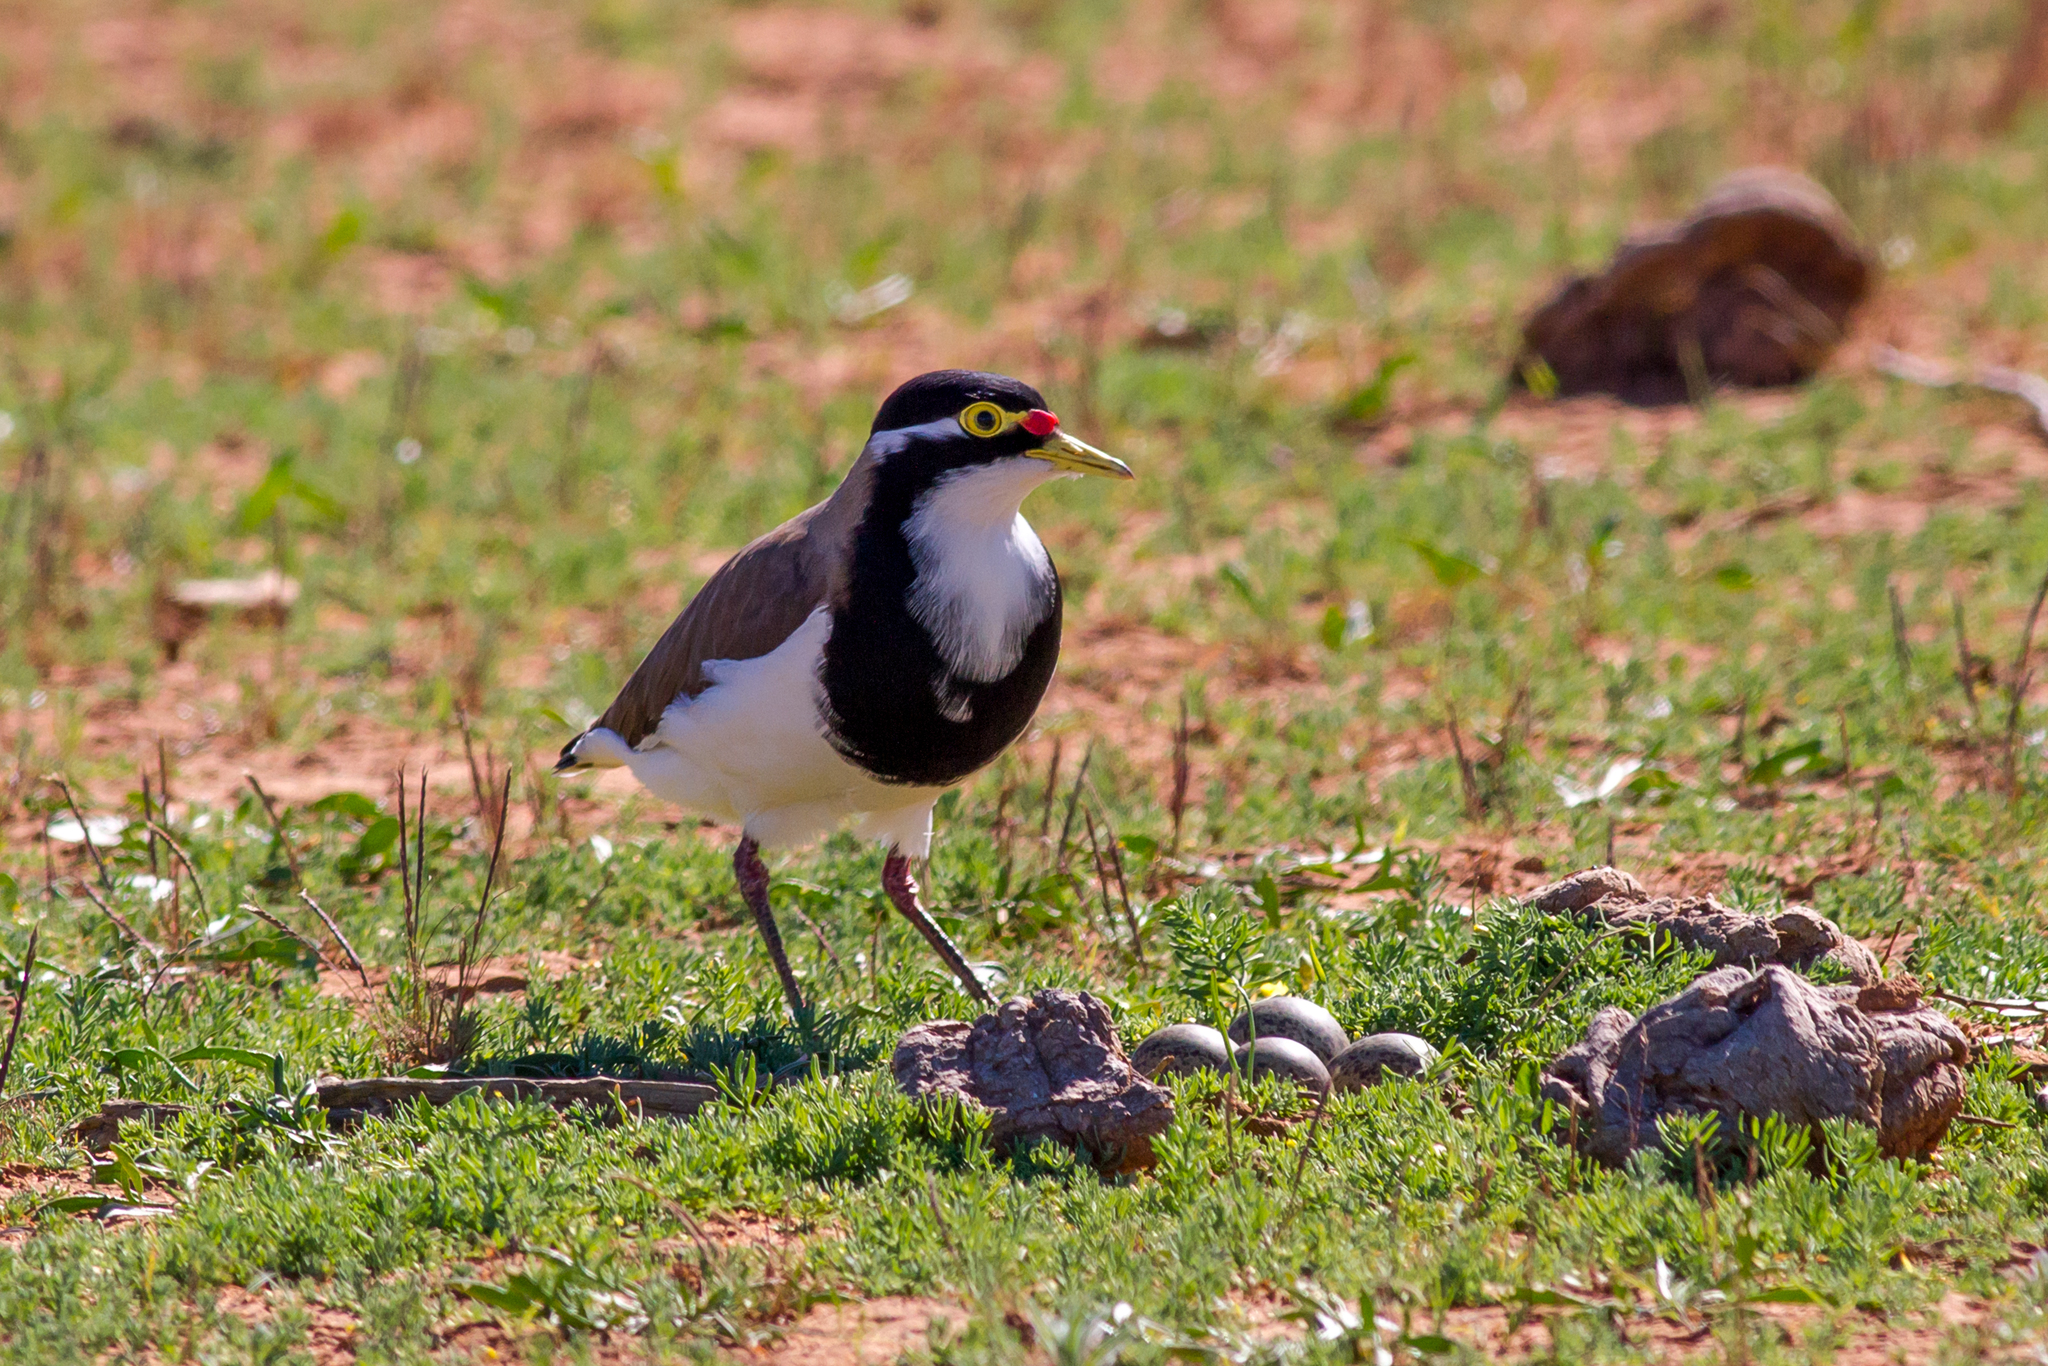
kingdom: Animalia
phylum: Chordata
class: Aves
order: Charadriiformes
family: Charadriidae
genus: Vanellus
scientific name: Vanellus tricolor
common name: Banded lapwing
